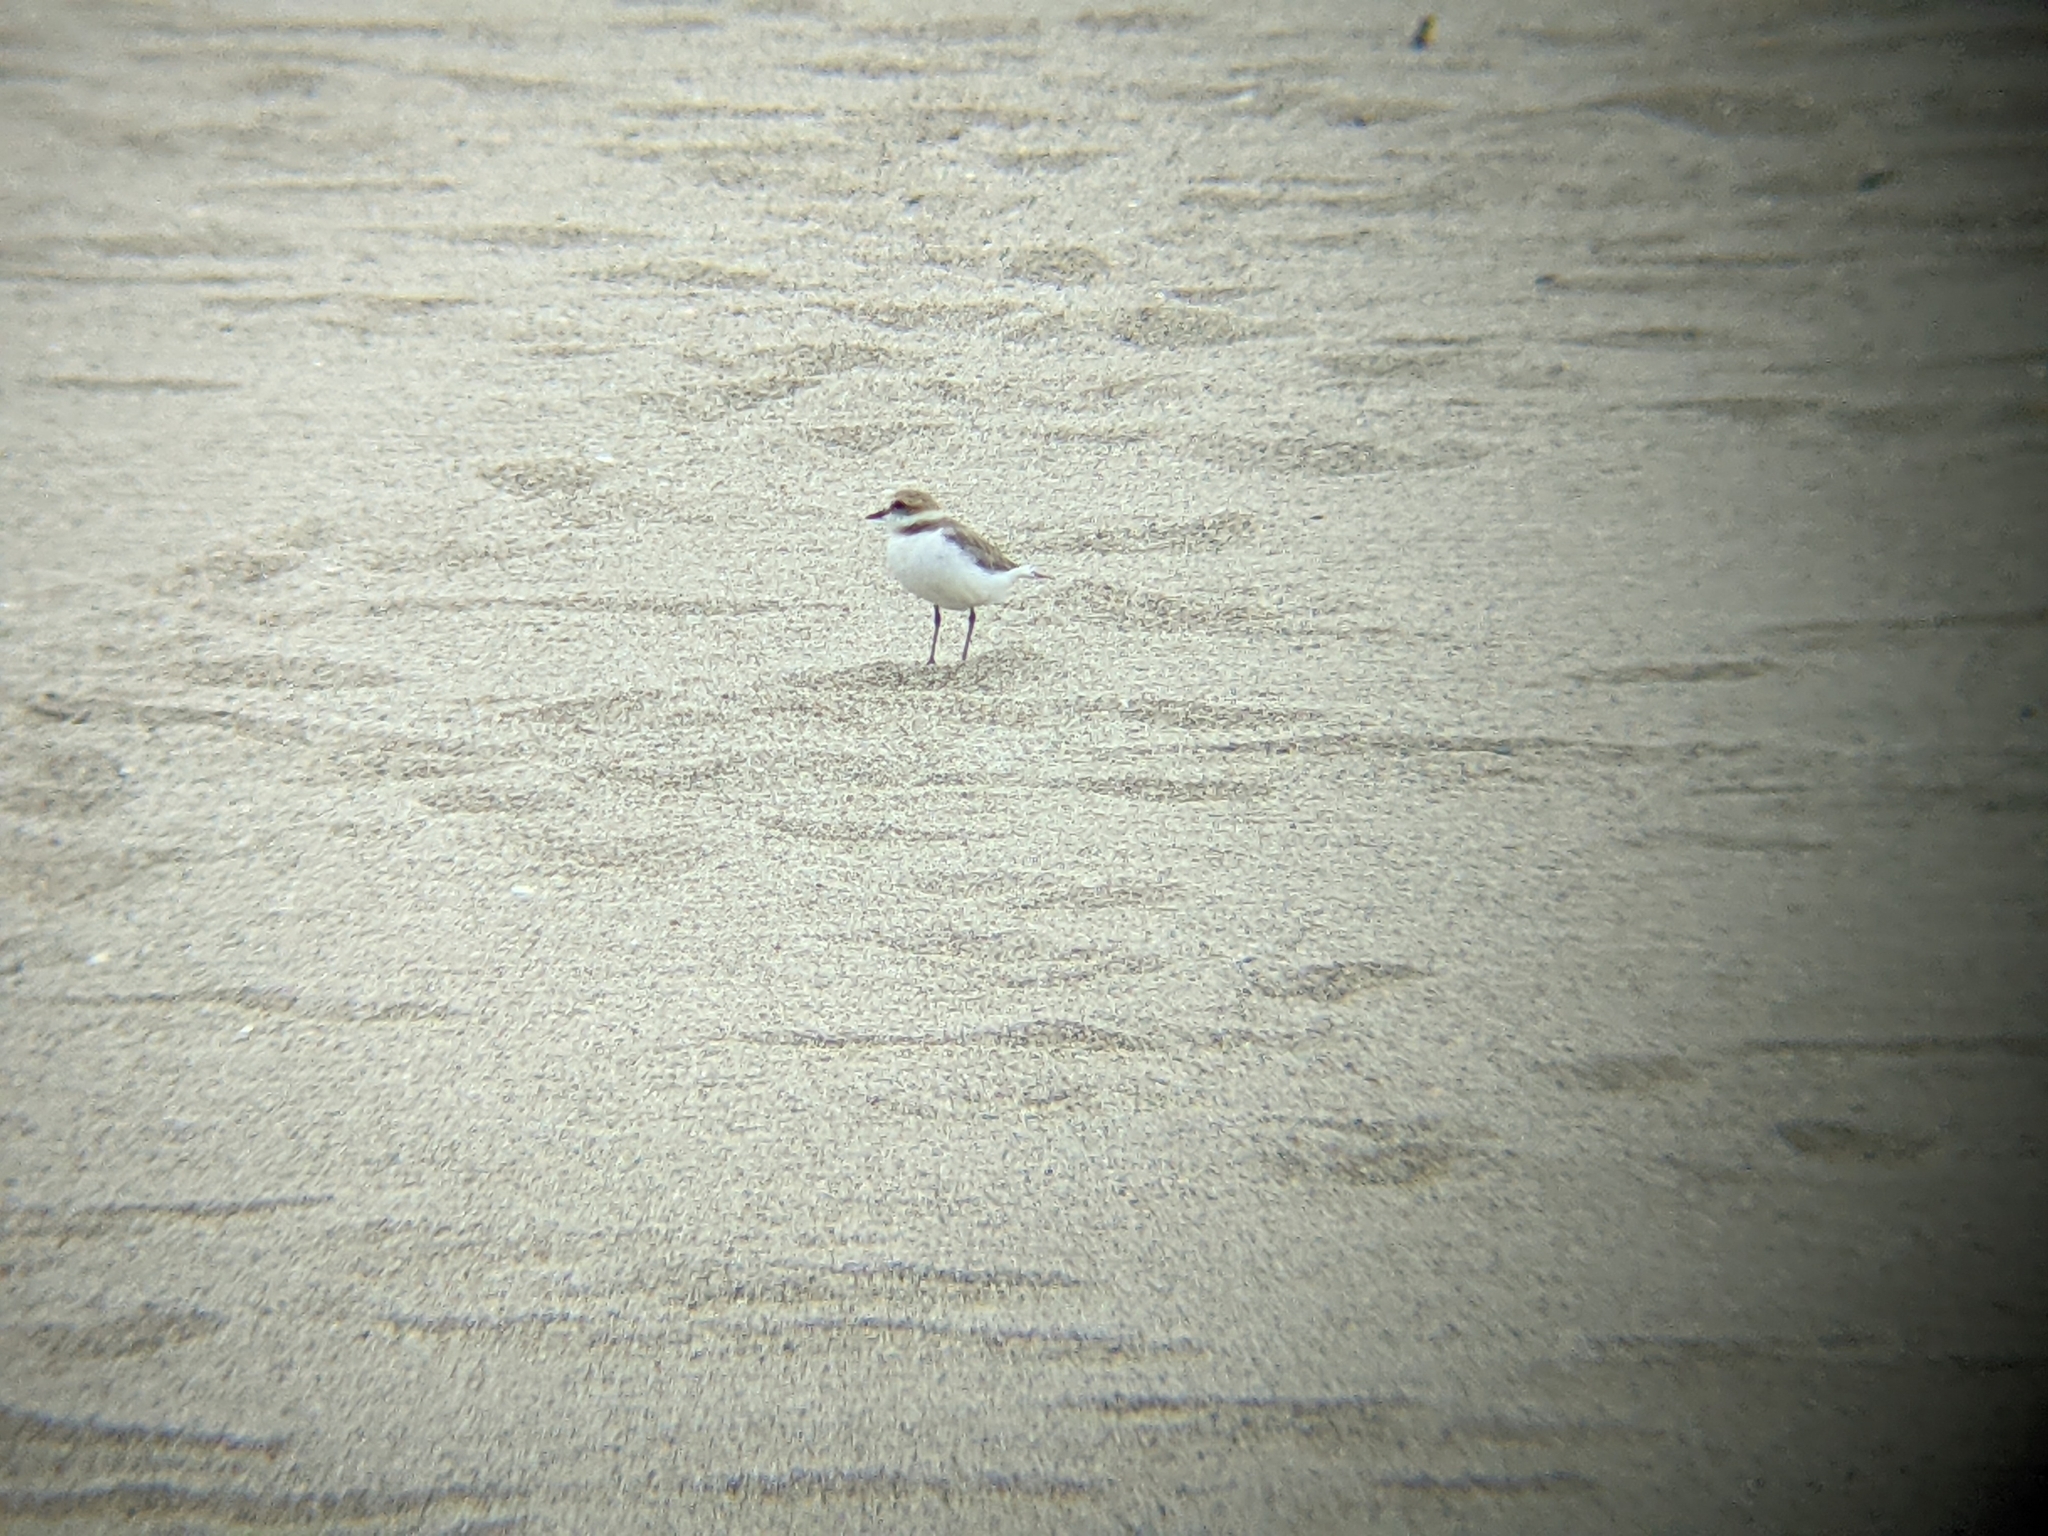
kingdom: Animalia
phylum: Chordata
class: Aves
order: Charadriiformes
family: Charadriidae
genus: Charadrius
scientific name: Charadrius alexandrinus
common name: Kentish plover
